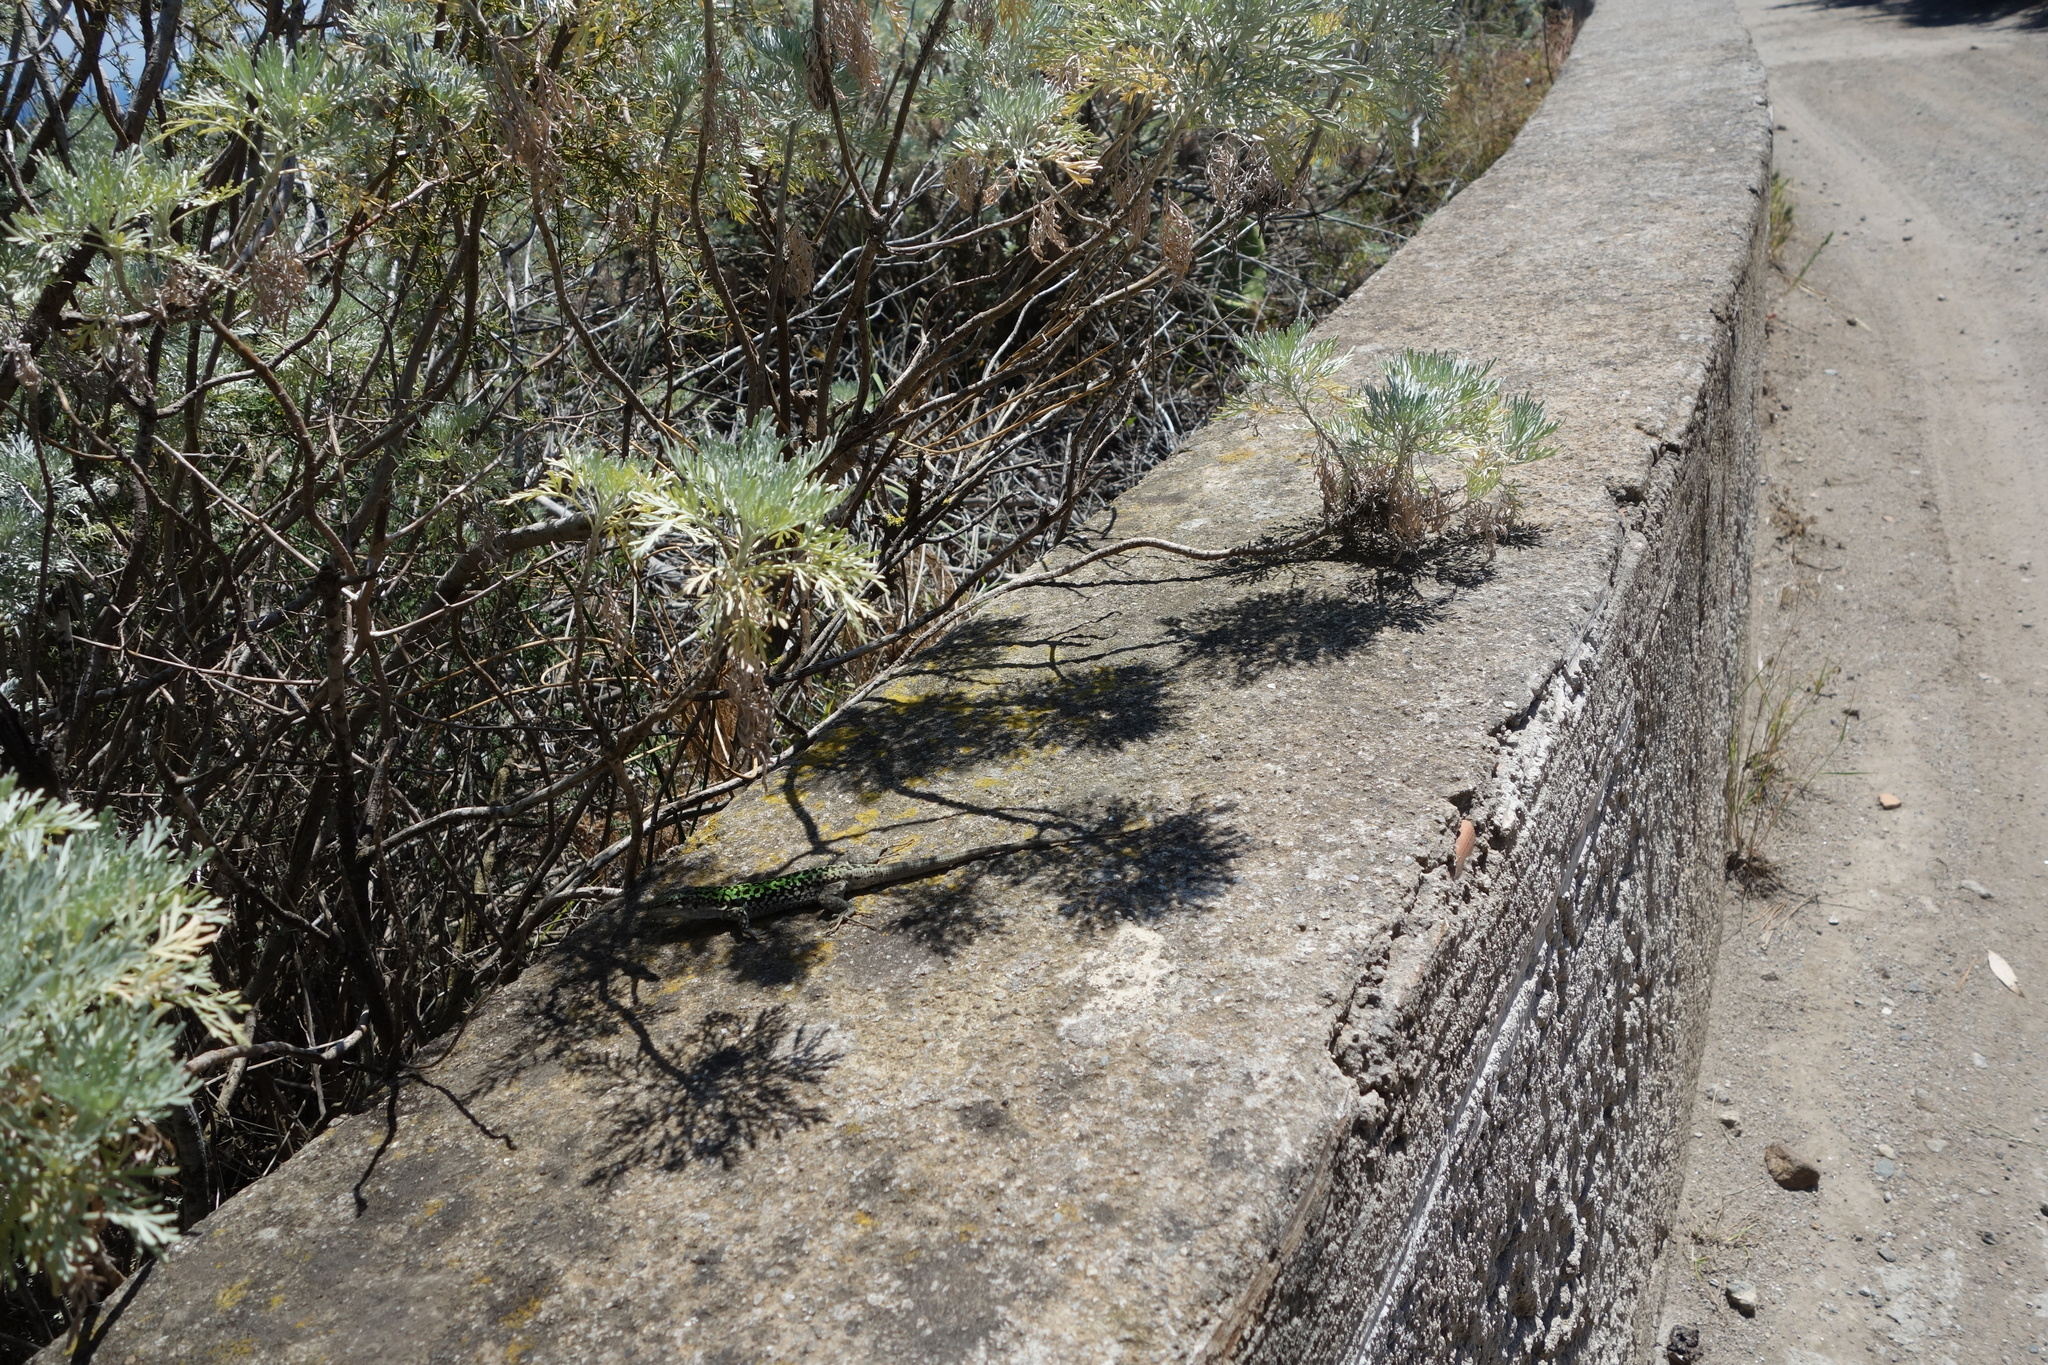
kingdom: Animalia
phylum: Chordata
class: Squamata
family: Lacertidae
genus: Podarcis
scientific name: Podarcis siculus
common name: Italian wall lizard
